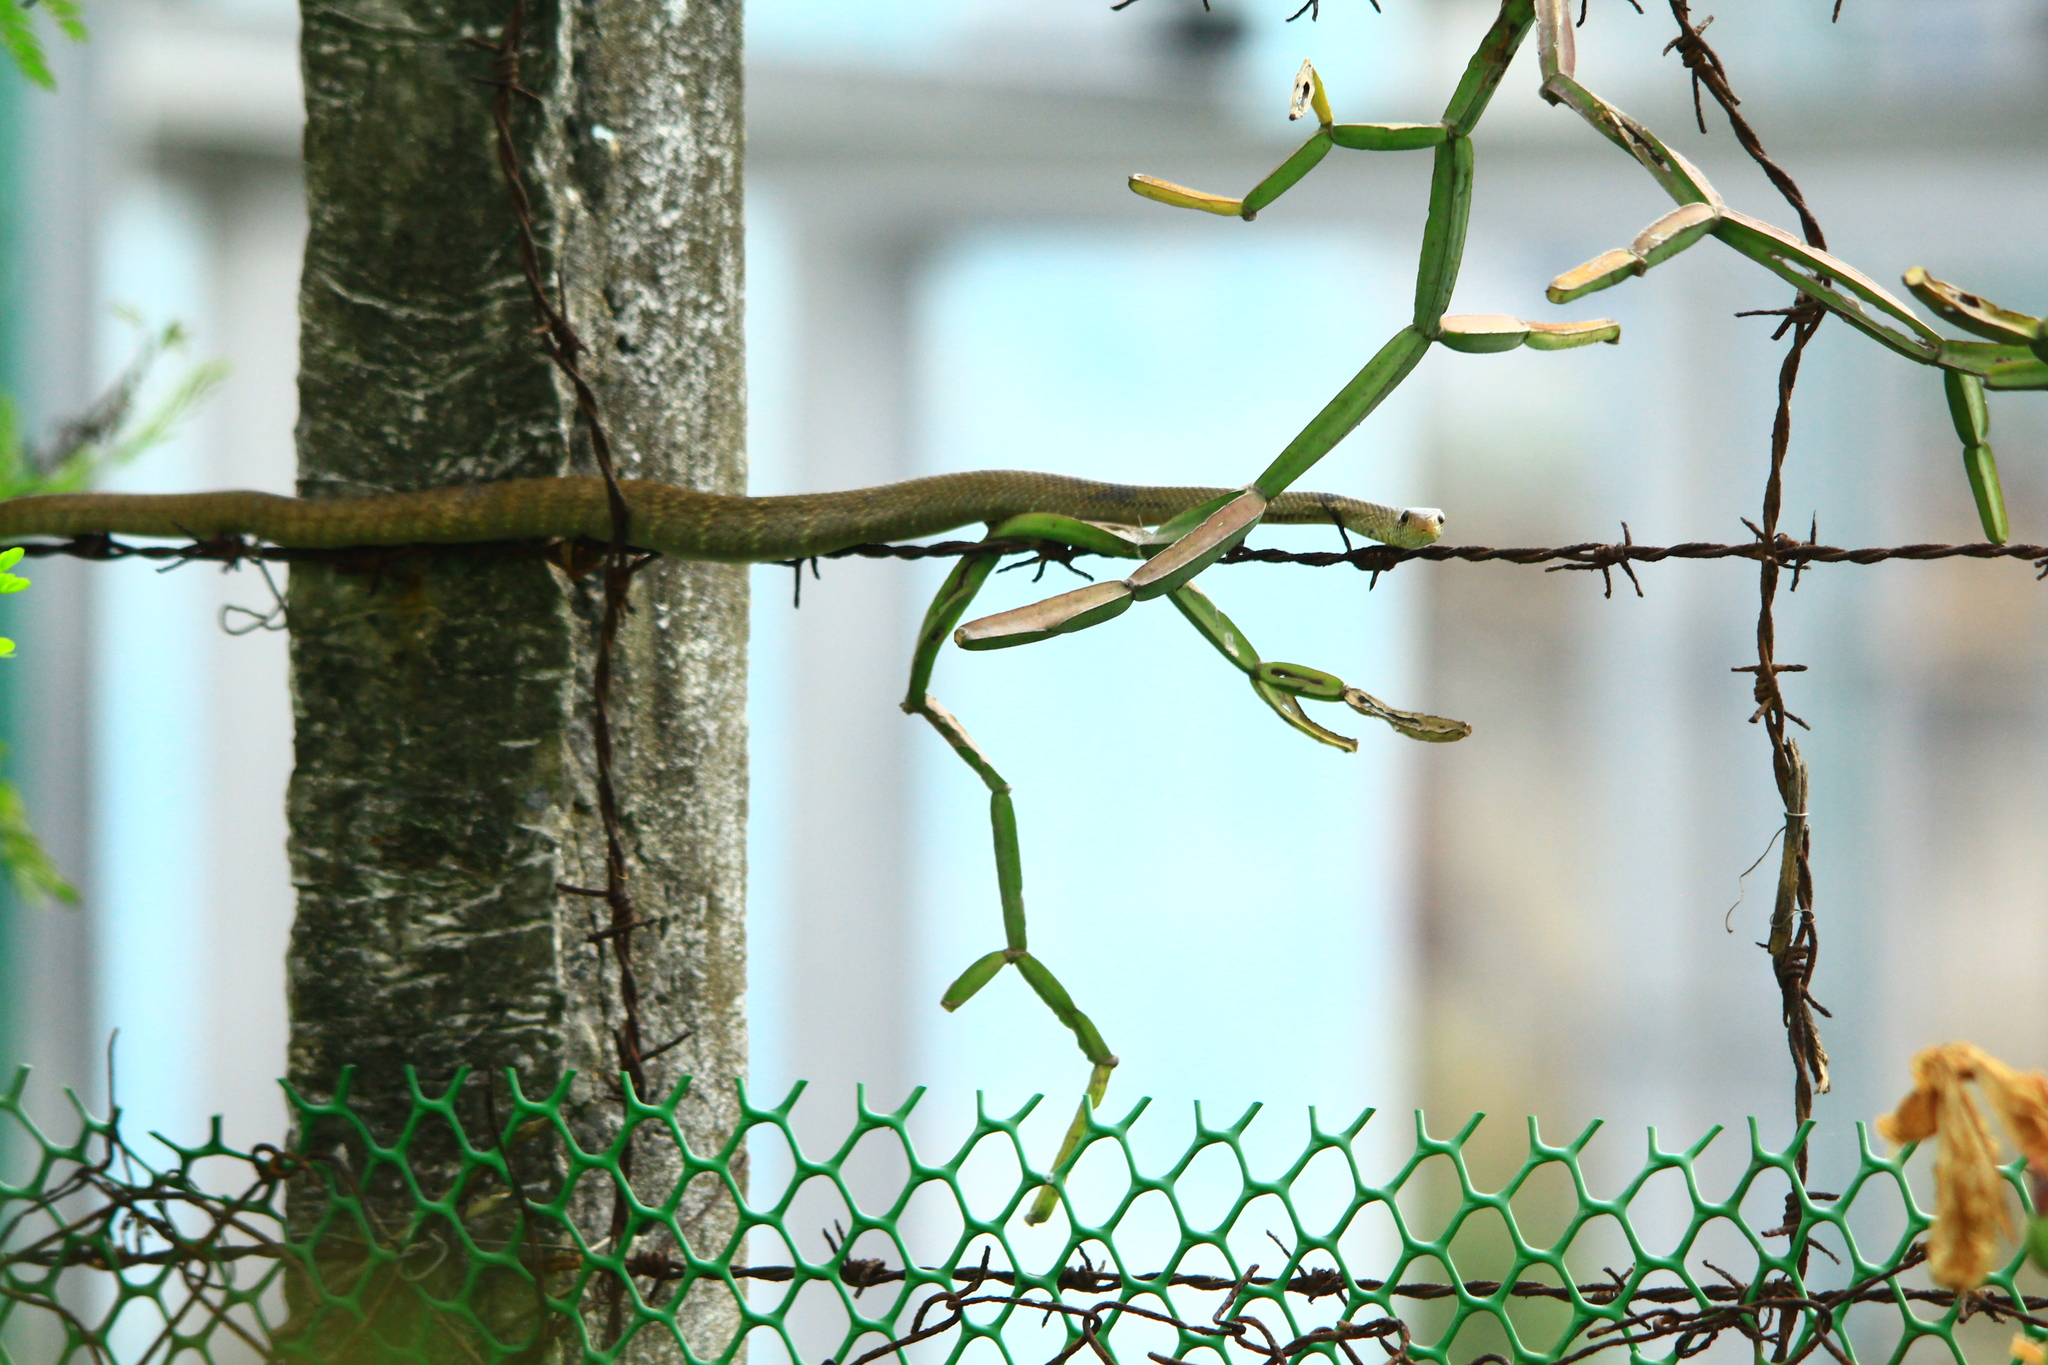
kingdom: Animalia
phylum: Chordata
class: Squamata
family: Colubridae
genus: Ptyas
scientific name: Ptyas mucosa
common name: Oriental ratsnake
